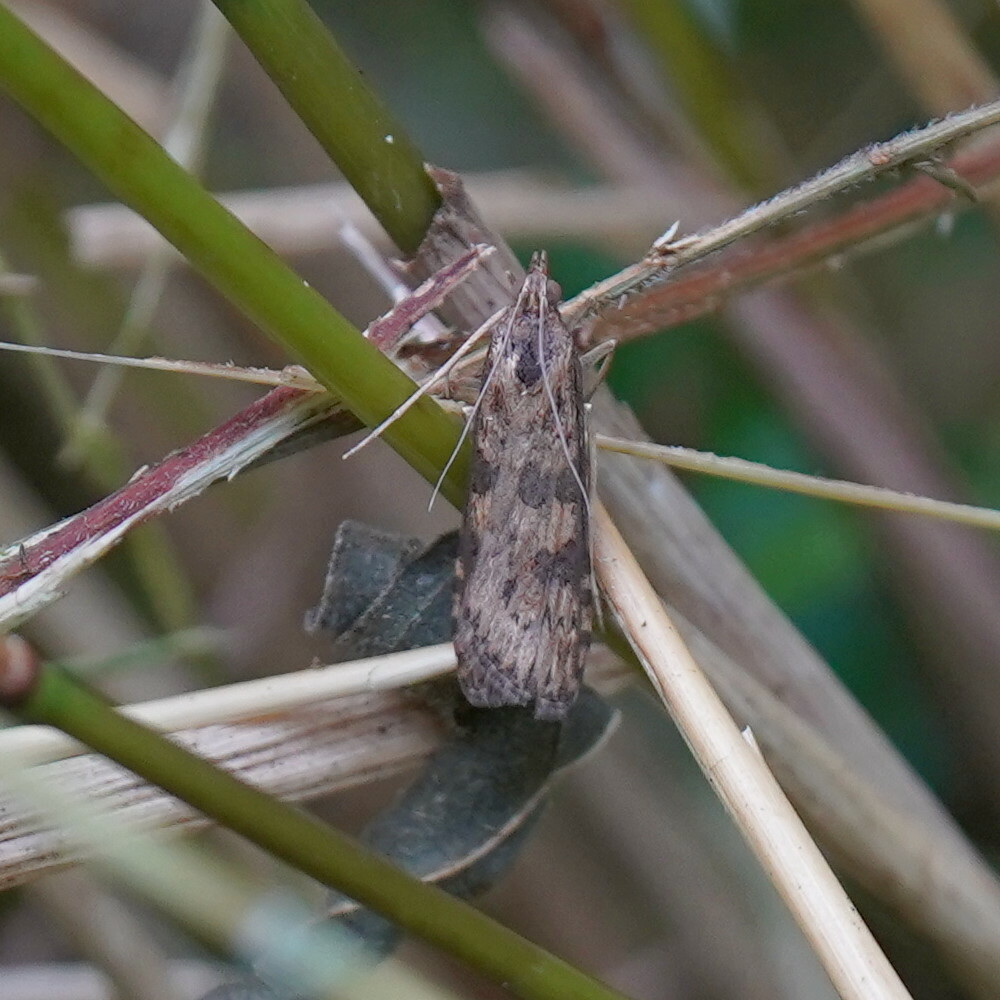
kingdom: Animalia
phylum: Arthropoda
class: Insecta
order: Lepidoptera
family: Crambidae
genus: Nomophila
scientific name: Nomophila nearctica
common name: American rush veneer
